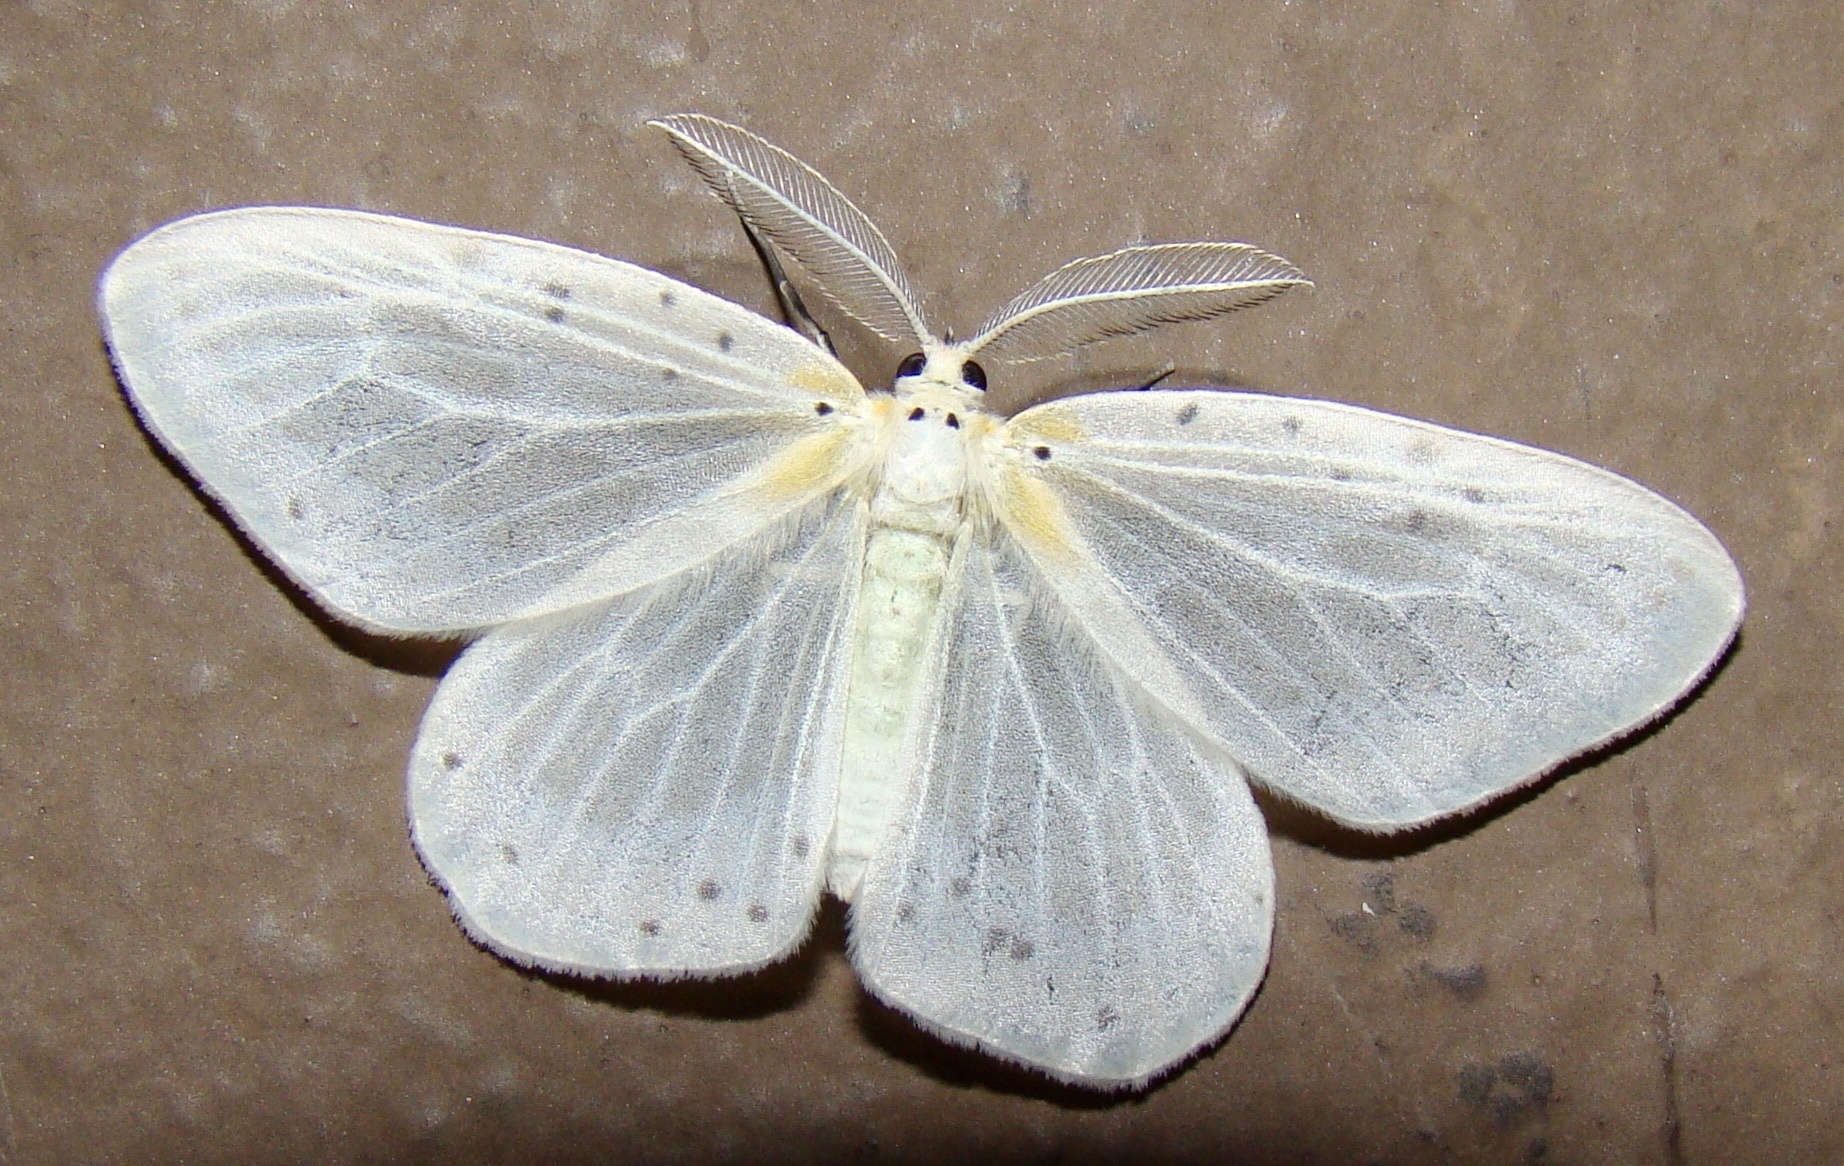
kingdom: Animalia
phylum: Arthropoda
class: Insecta
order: Lepidoptera
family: Geometridae
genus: Genusa
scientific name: Genusa bigutta
